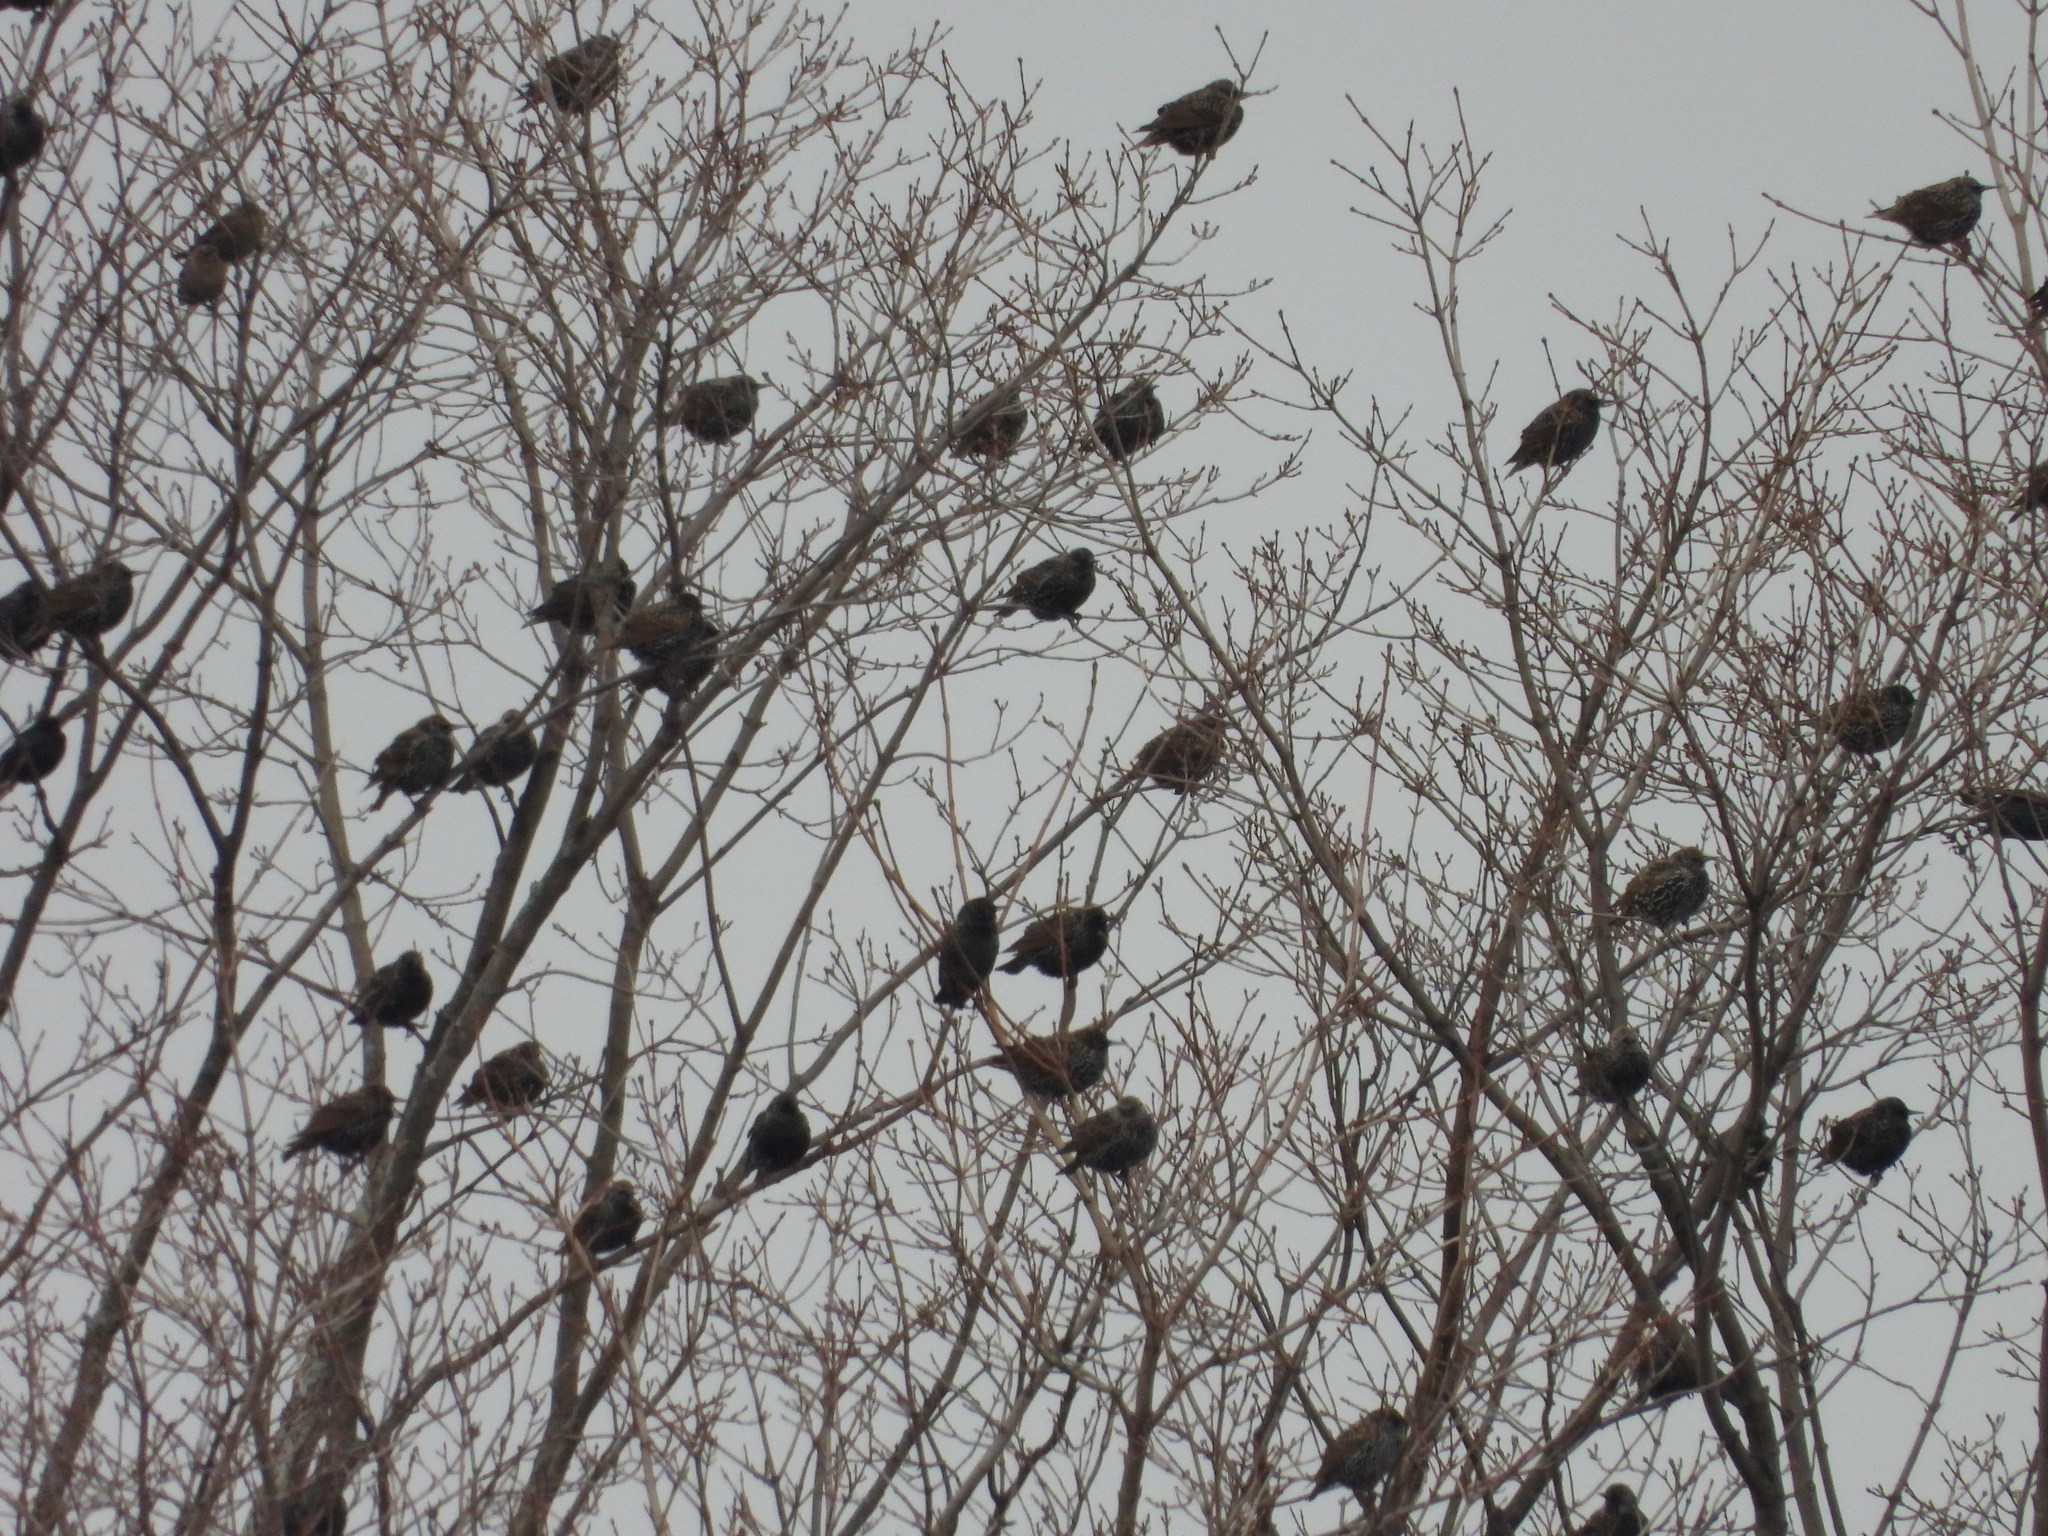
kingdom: Animalia
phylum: Chordata
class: Aves
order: Passeriformes
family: Sturnidae
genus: Sturnus
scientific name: Sturnus vulgaris
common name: Common starling
